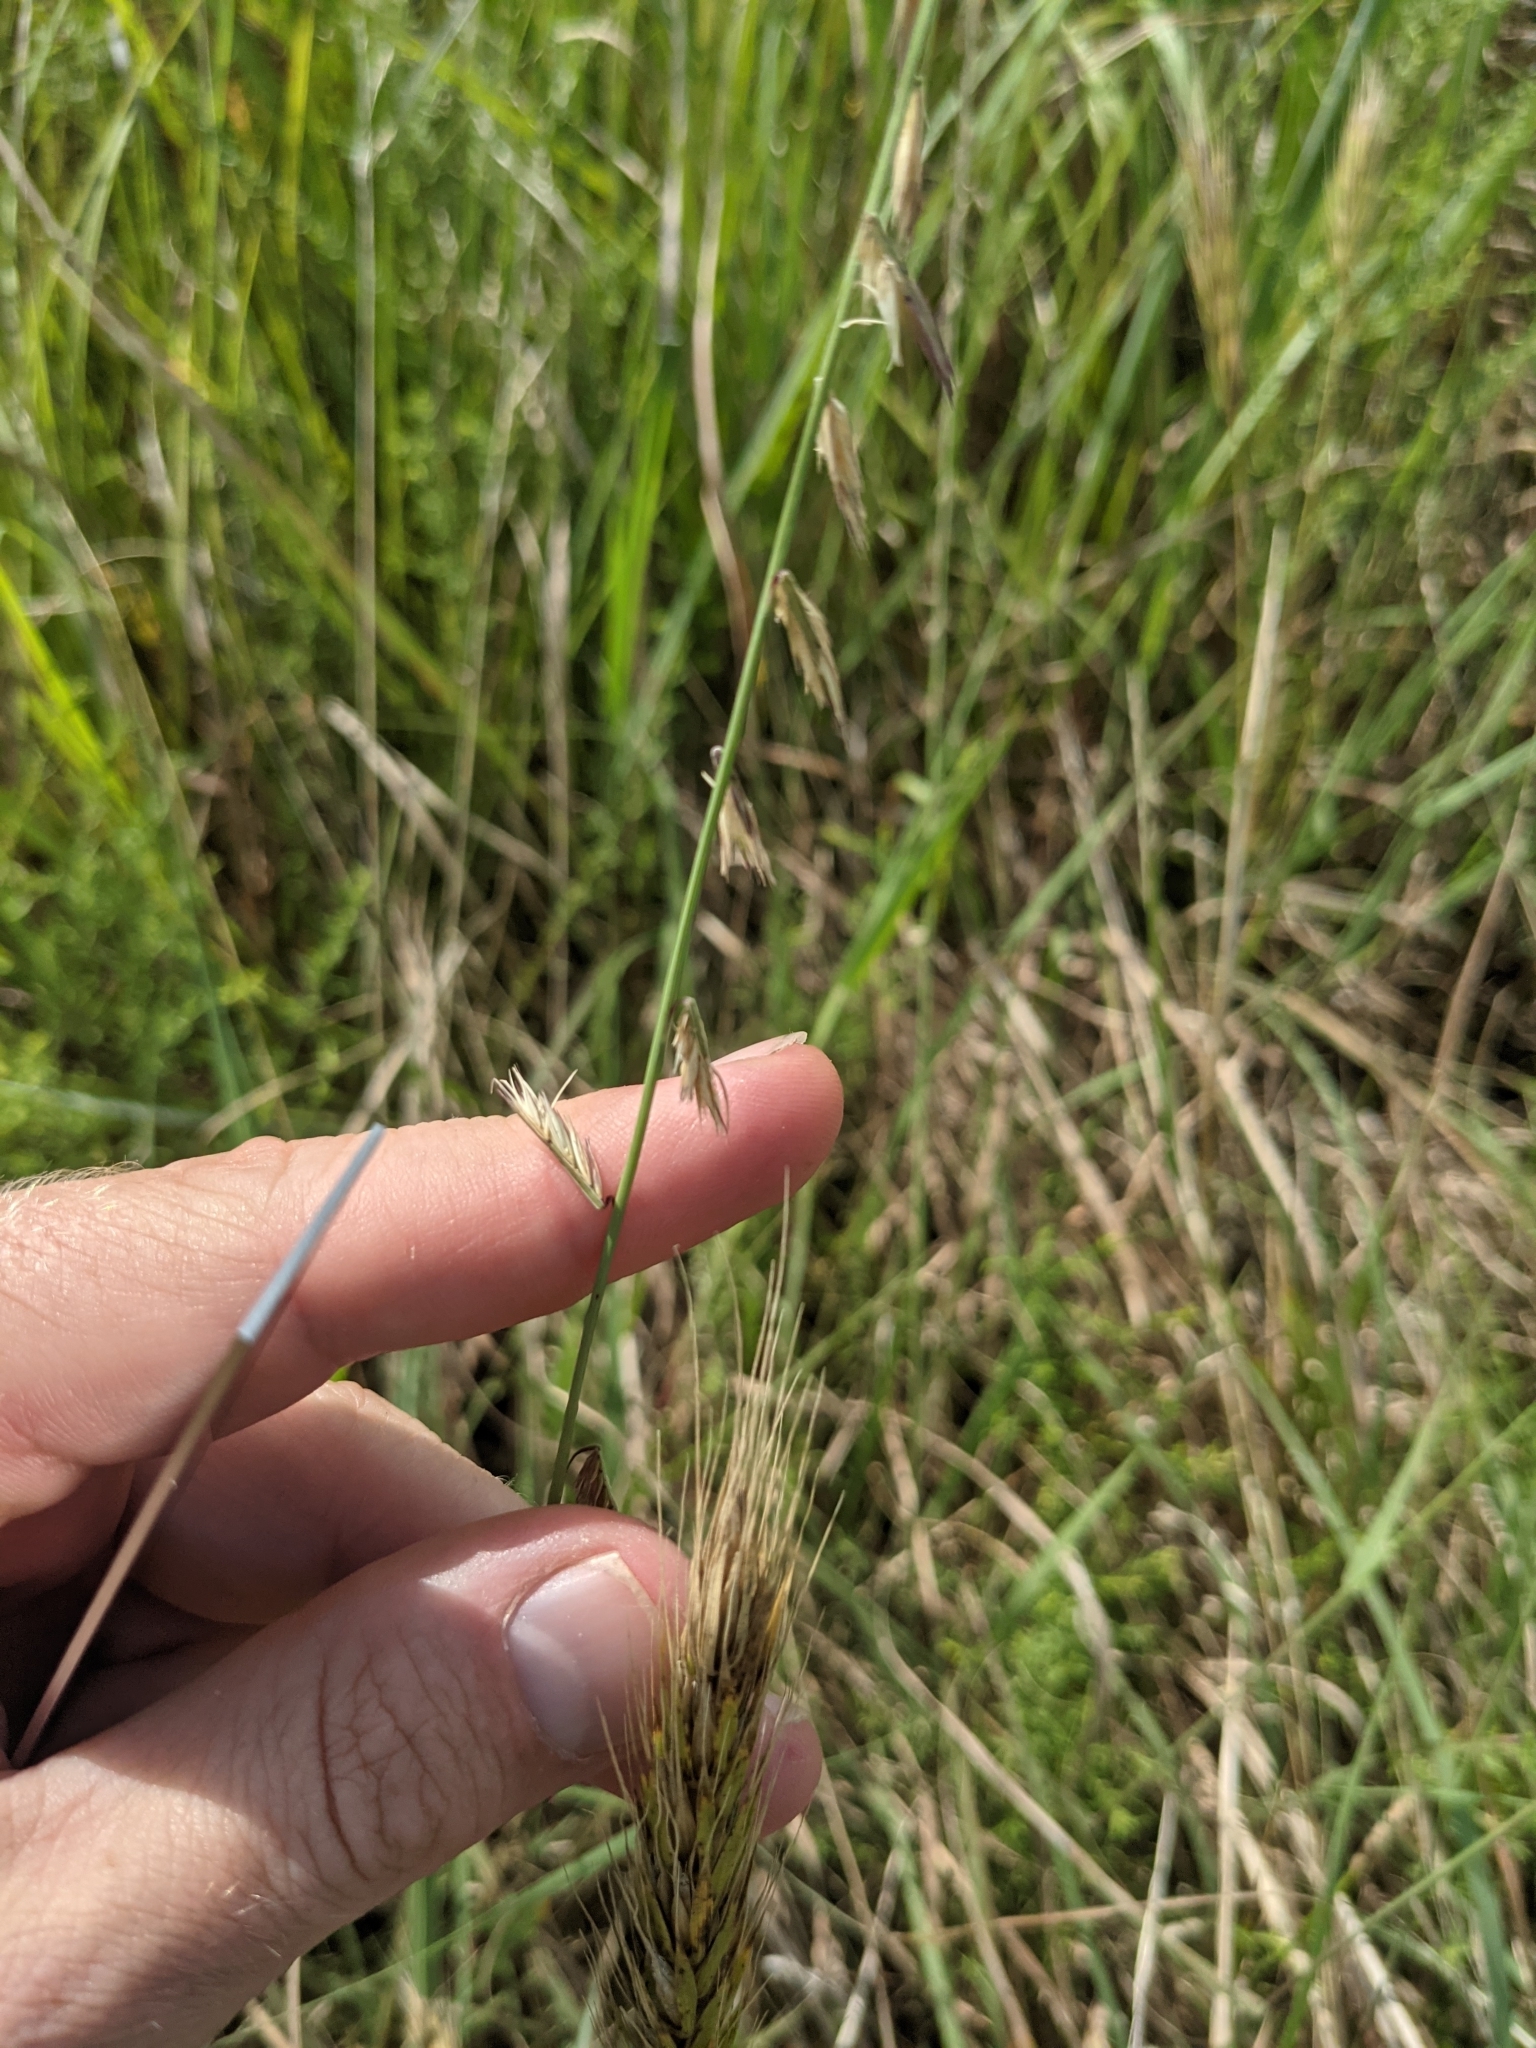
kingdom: Plantae
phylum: Tracheophyta
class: Liliopsida
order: Poales
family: Poaceae
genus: Bouteloua
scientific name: Bouteloua curtipendula
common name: Side-oats grama
